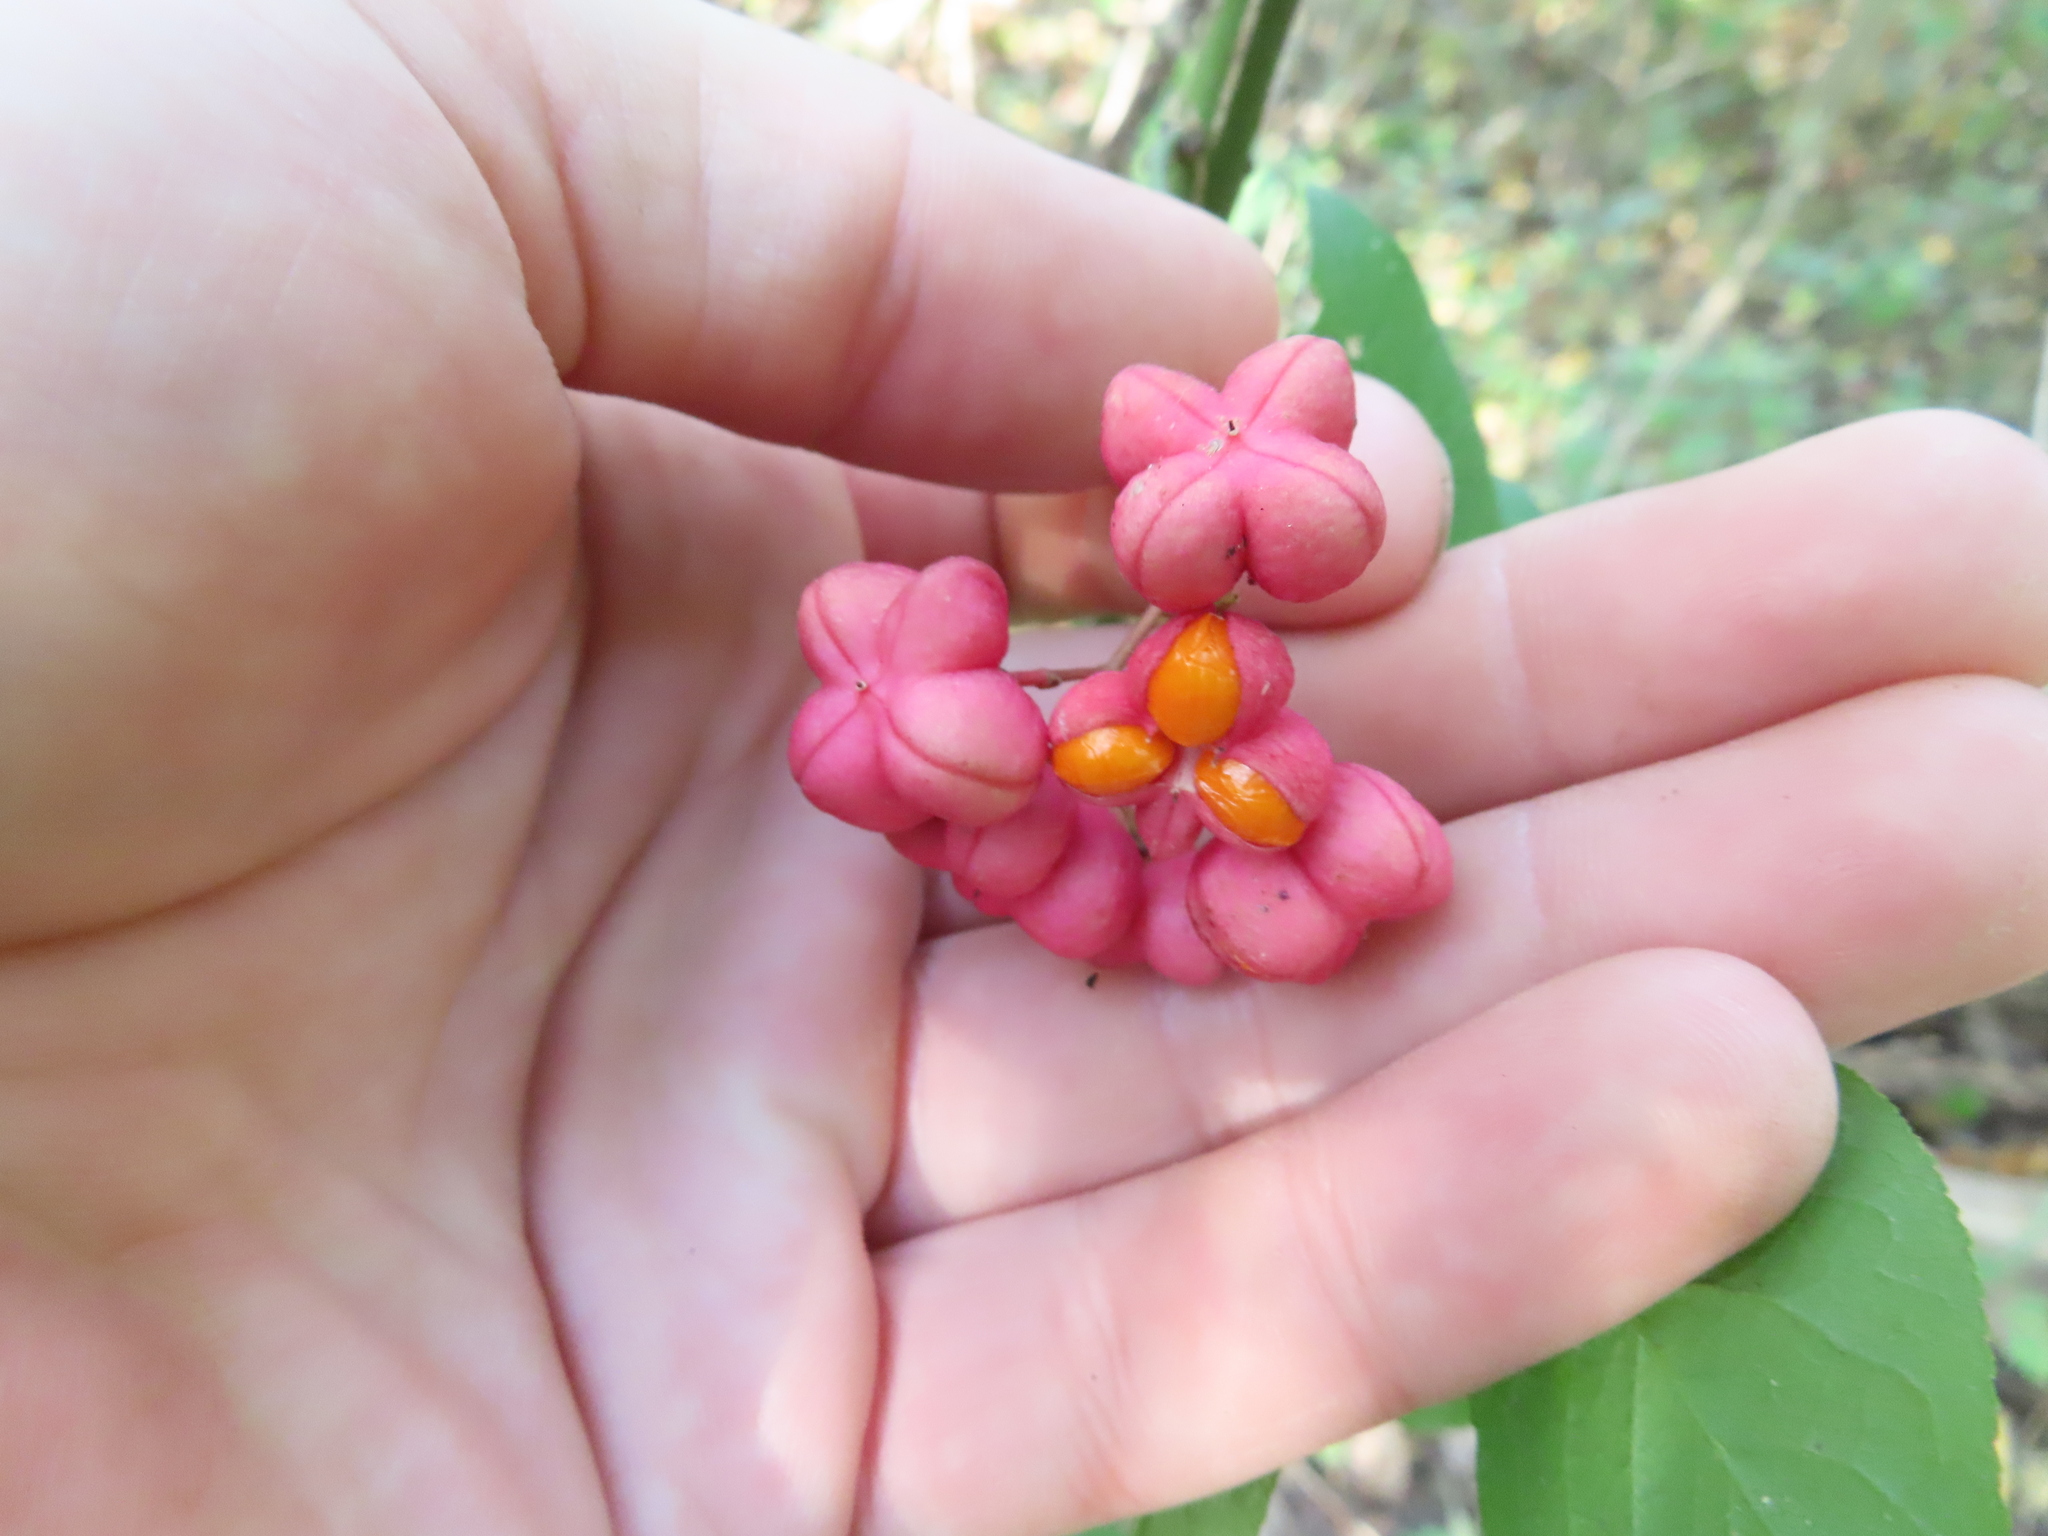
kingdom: Plantae
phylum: Tracheophyta
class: Magnoliopsida
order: Celastrales
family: Celastraceae
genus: Euonymus
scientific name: Euonymus europaeus
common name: Spindle
